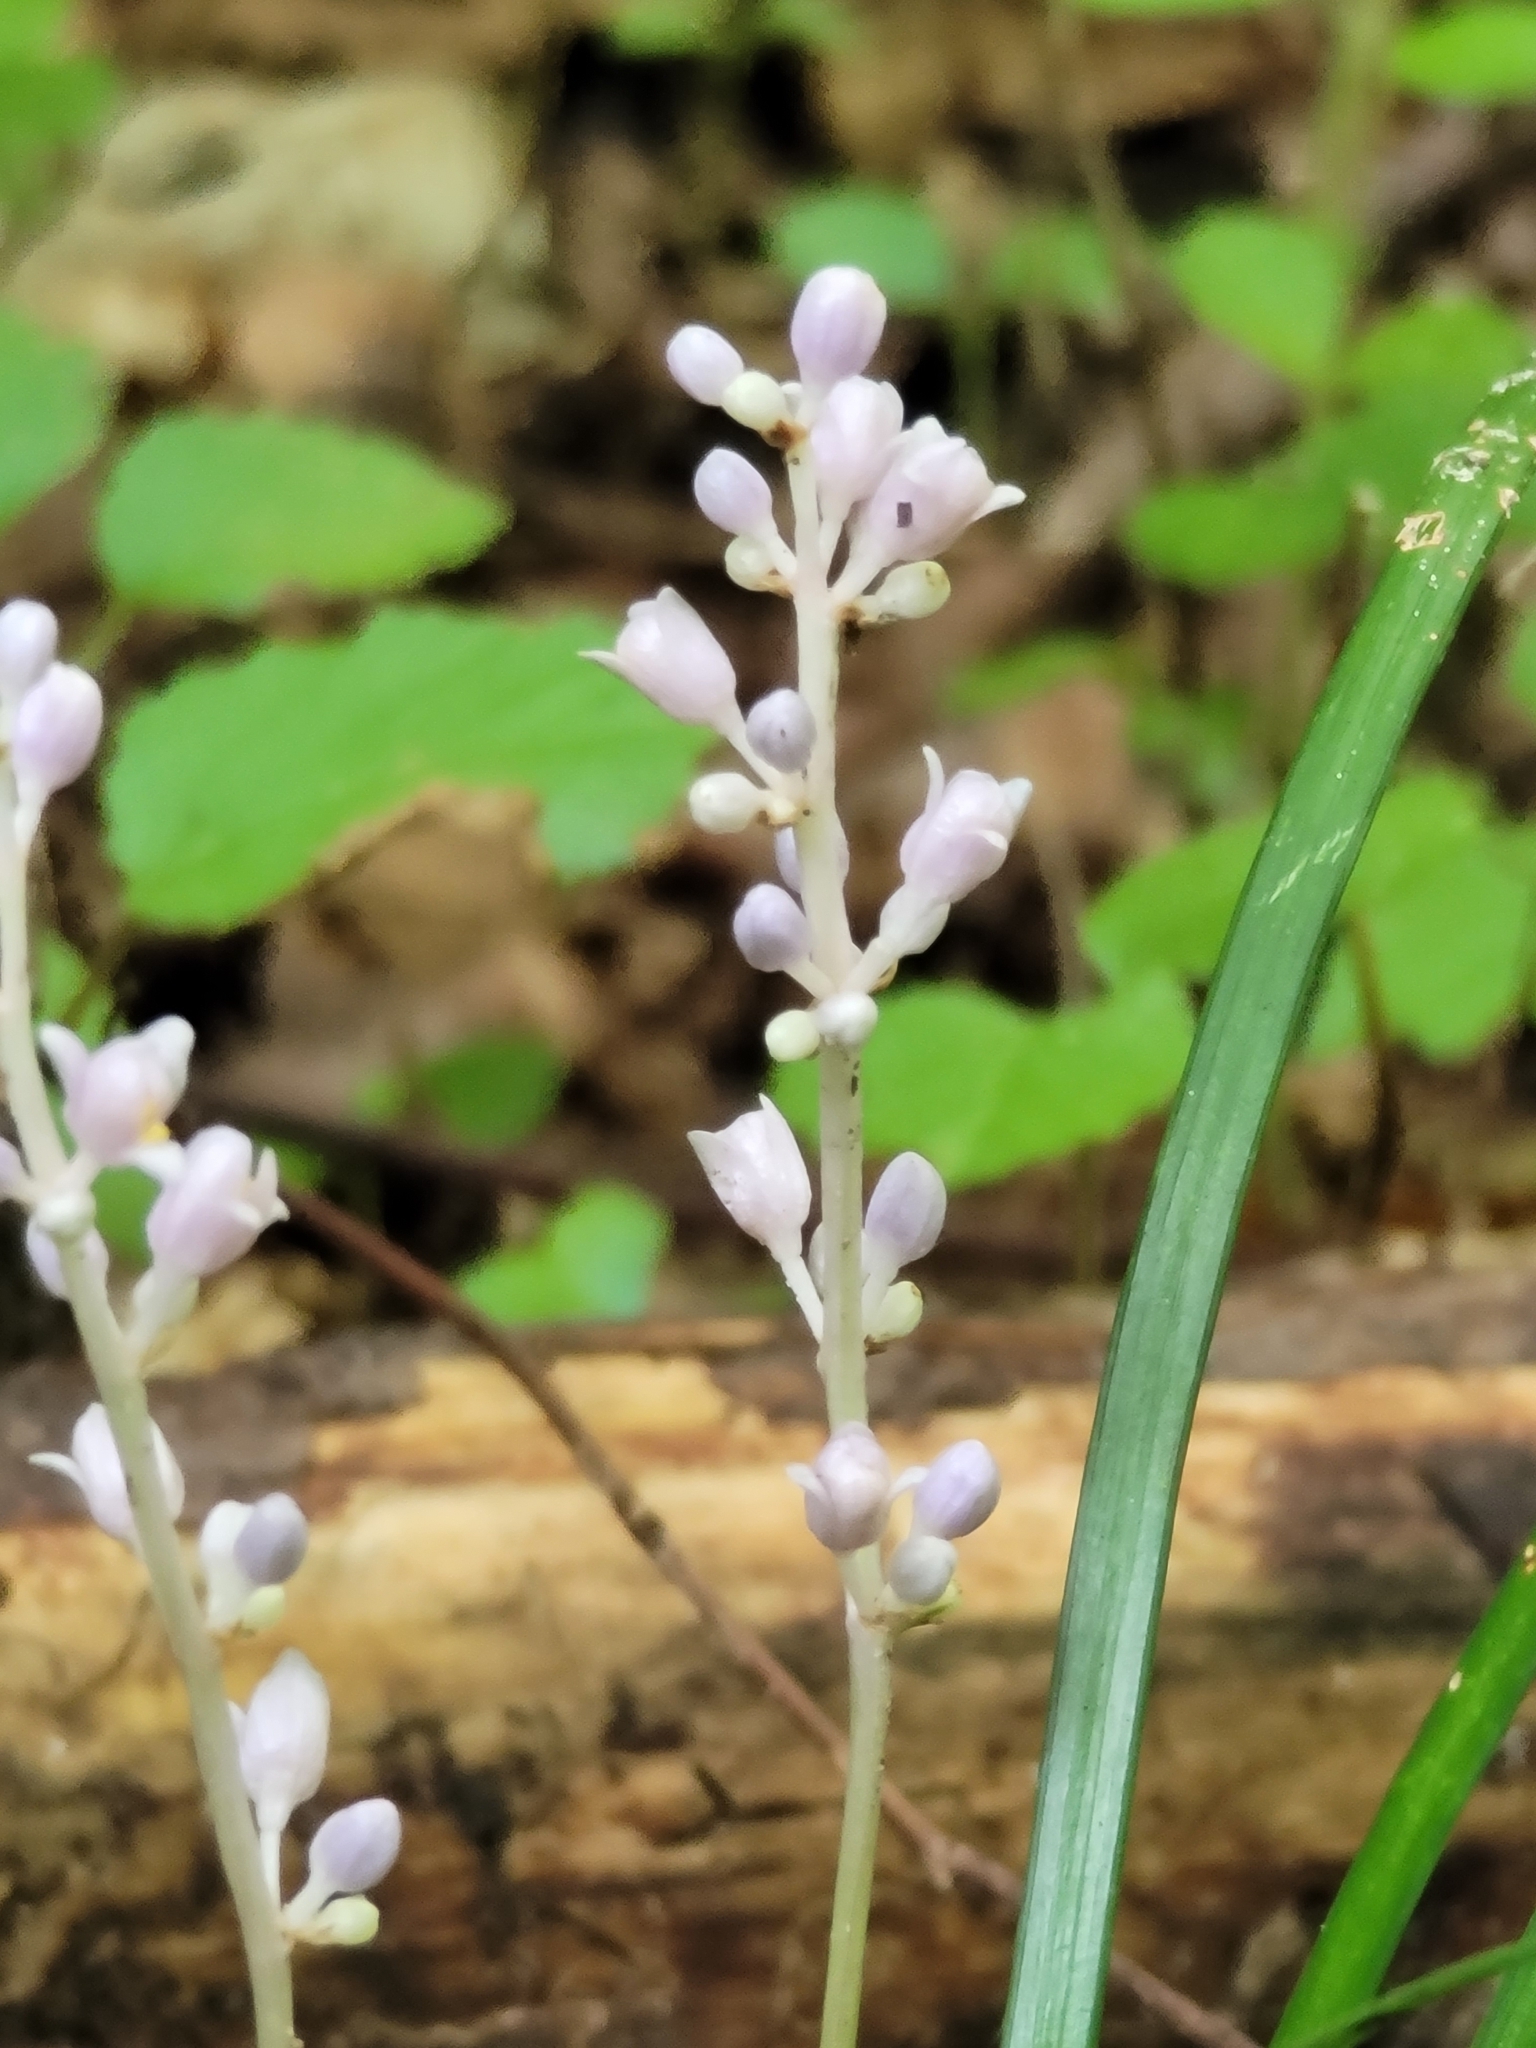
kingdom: Plantae
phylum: Tracheophyta
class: Liliopsida
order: Asparagales
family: Asparagaceae
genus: Liriope
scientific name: Liriope spicata
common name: Creeping liriope
